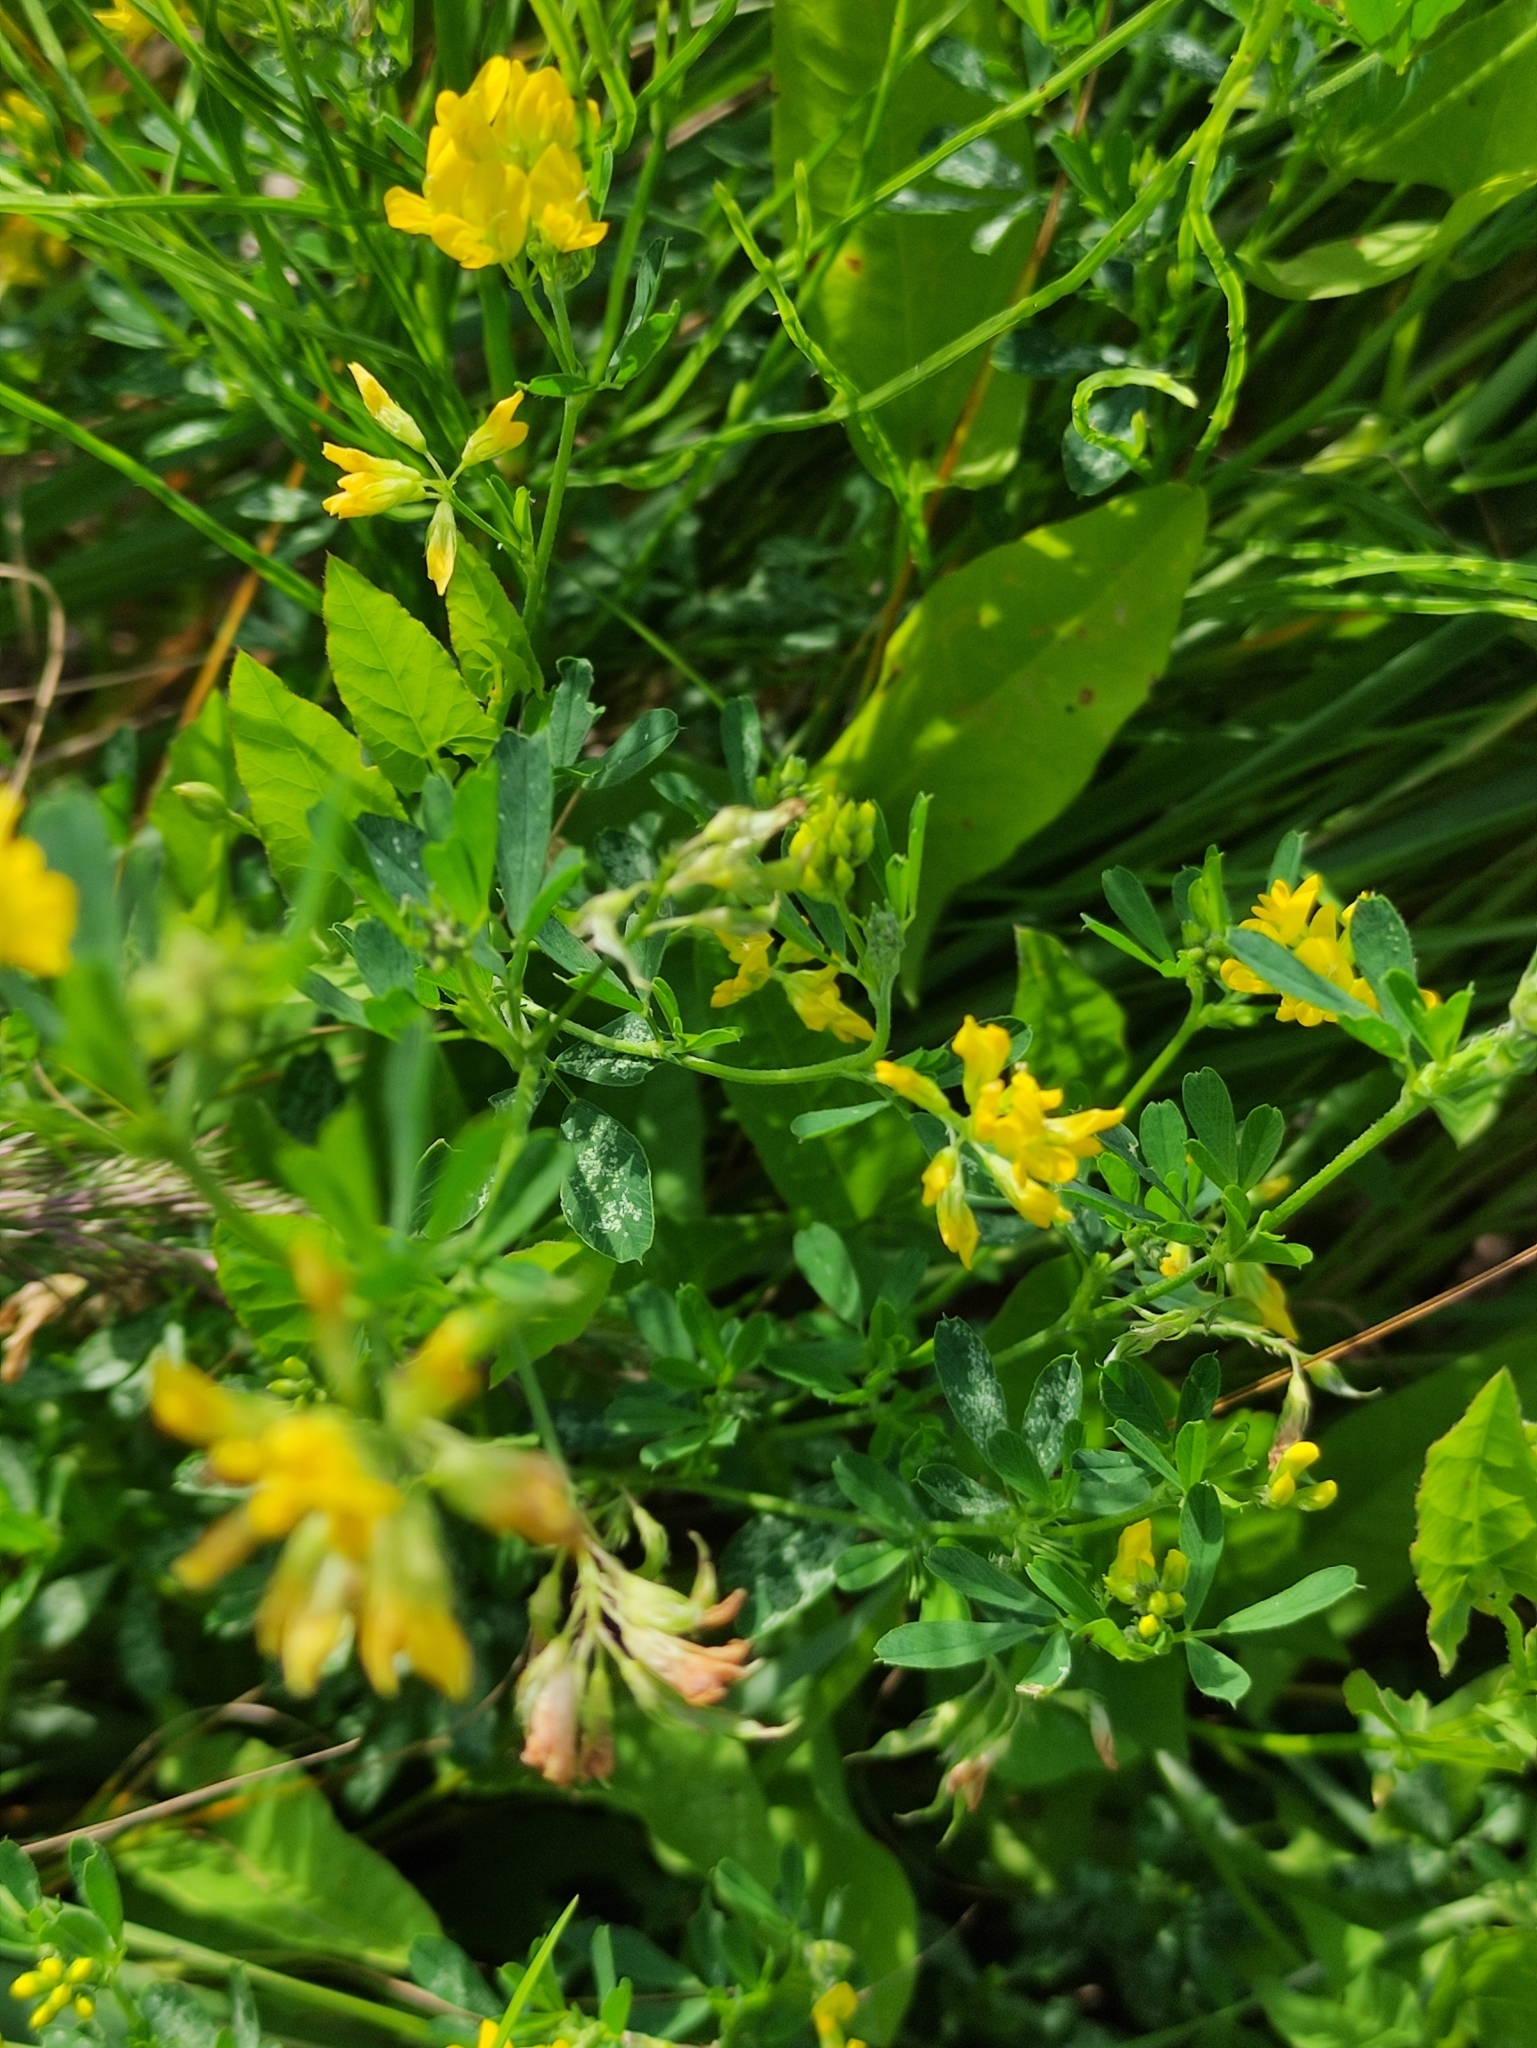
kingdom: Plantae
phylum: Tracheophyta
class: Magnoliopsida
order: Fabales
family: Fabaceae
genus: Medicago
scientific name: Medicago falcata
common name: Sickle medick
